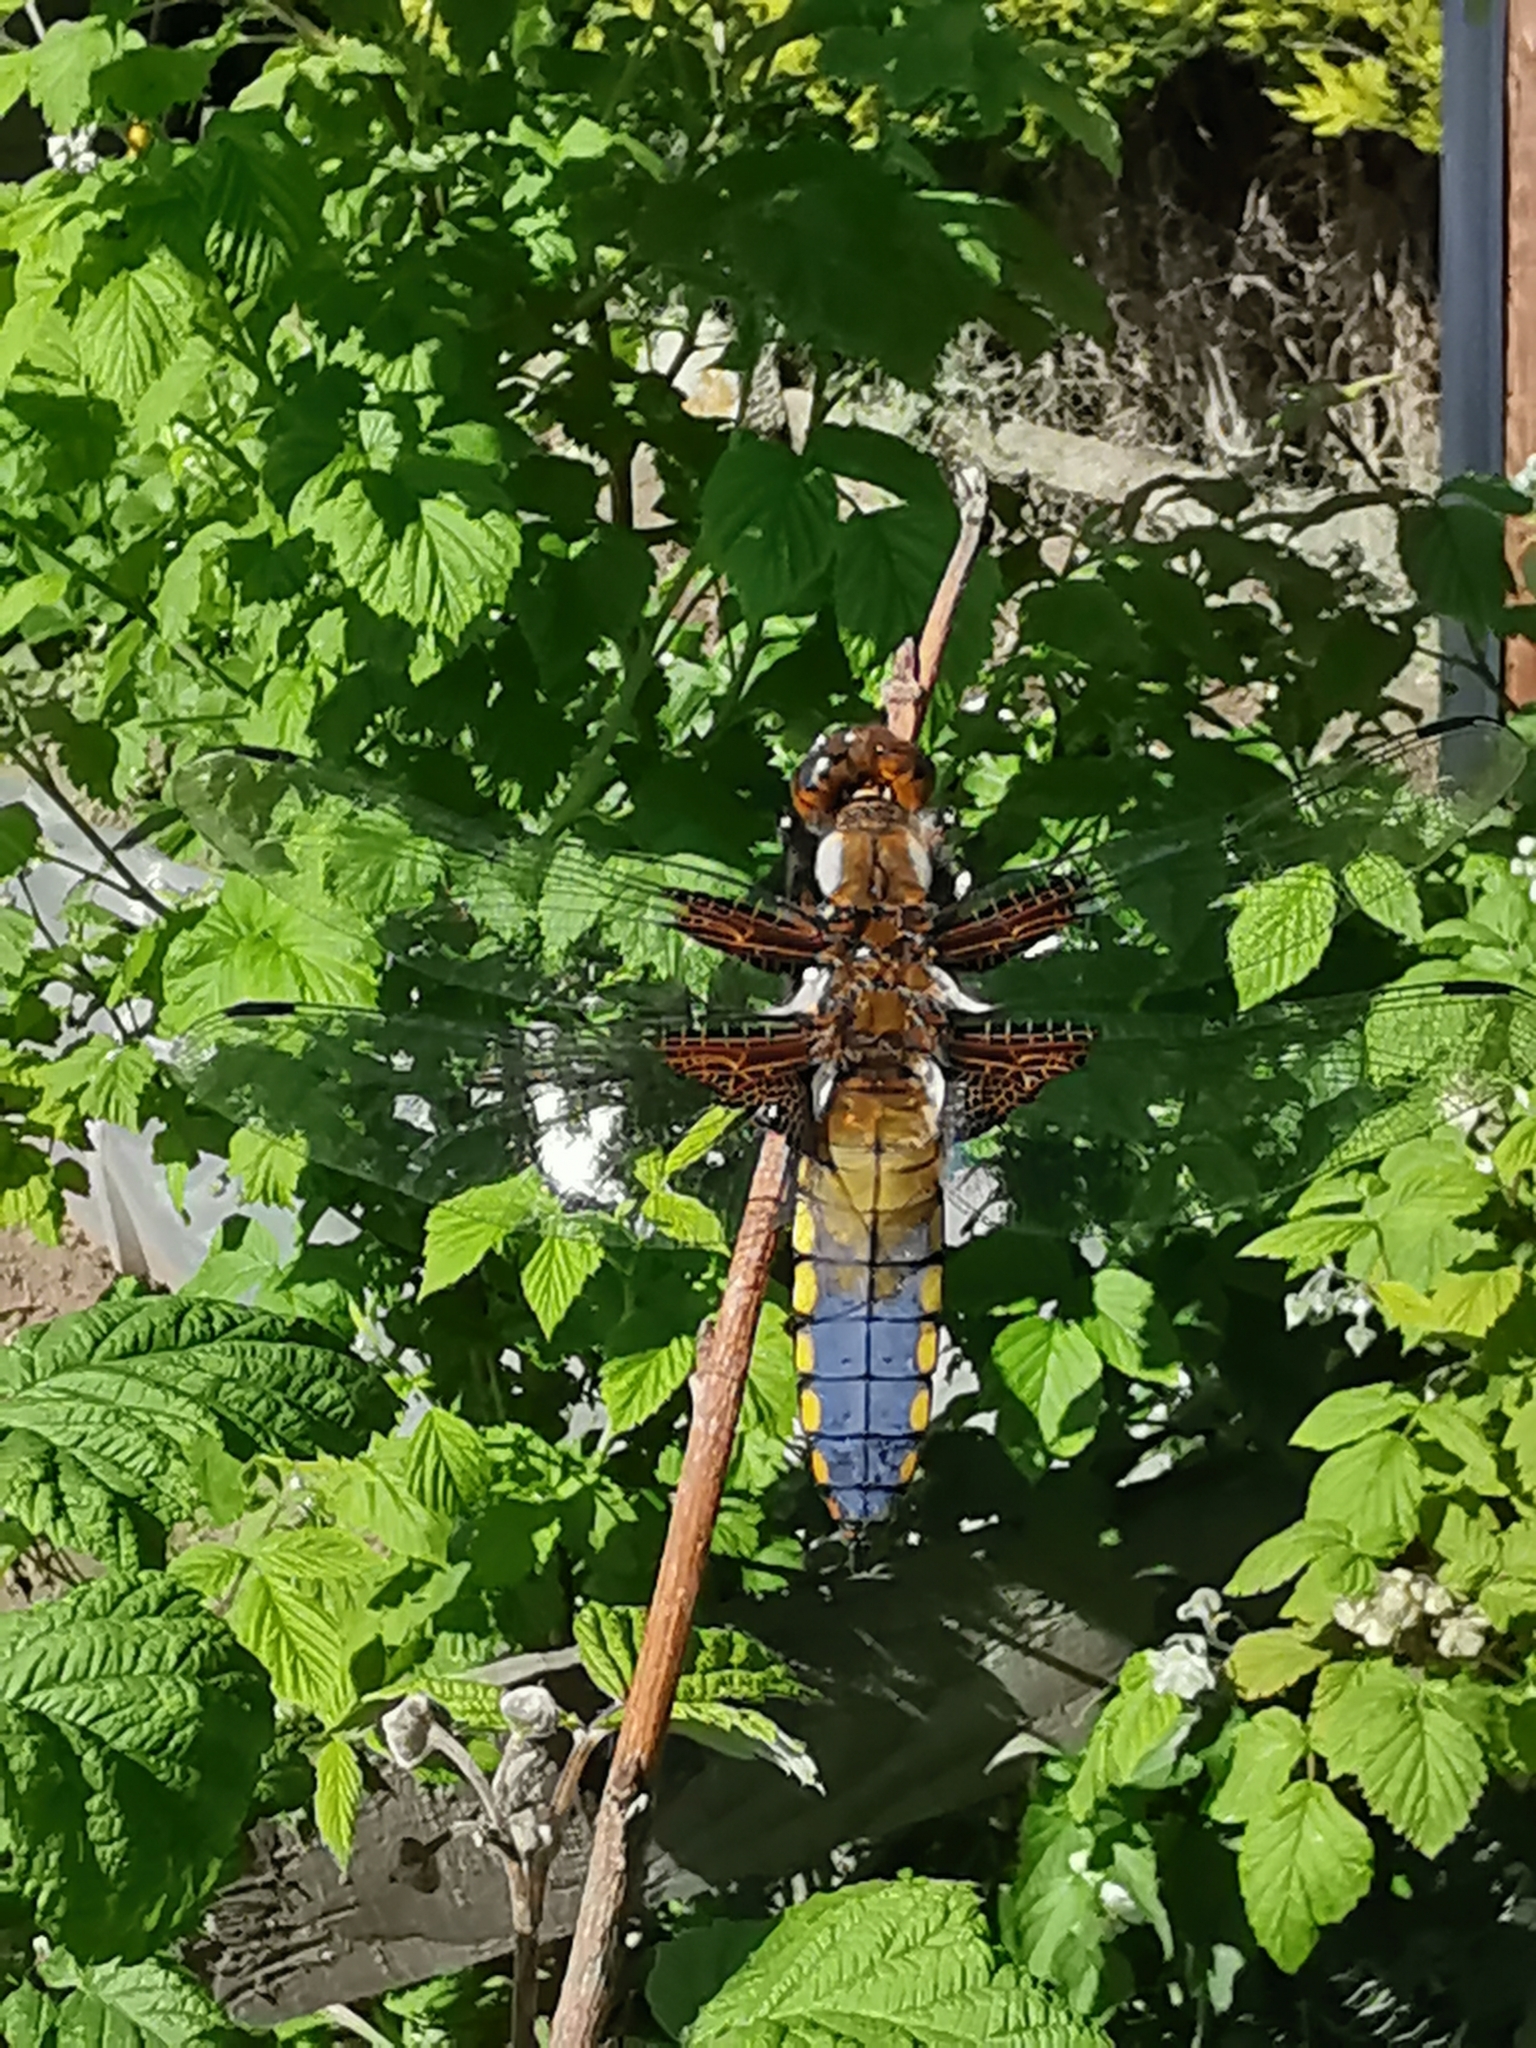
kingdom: Animalia
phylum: Arthropoda
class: Insecta
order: Odonata
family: Libellulidae
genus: Libellula
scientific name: Libellula depressa
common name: Broad-bodied chaser
